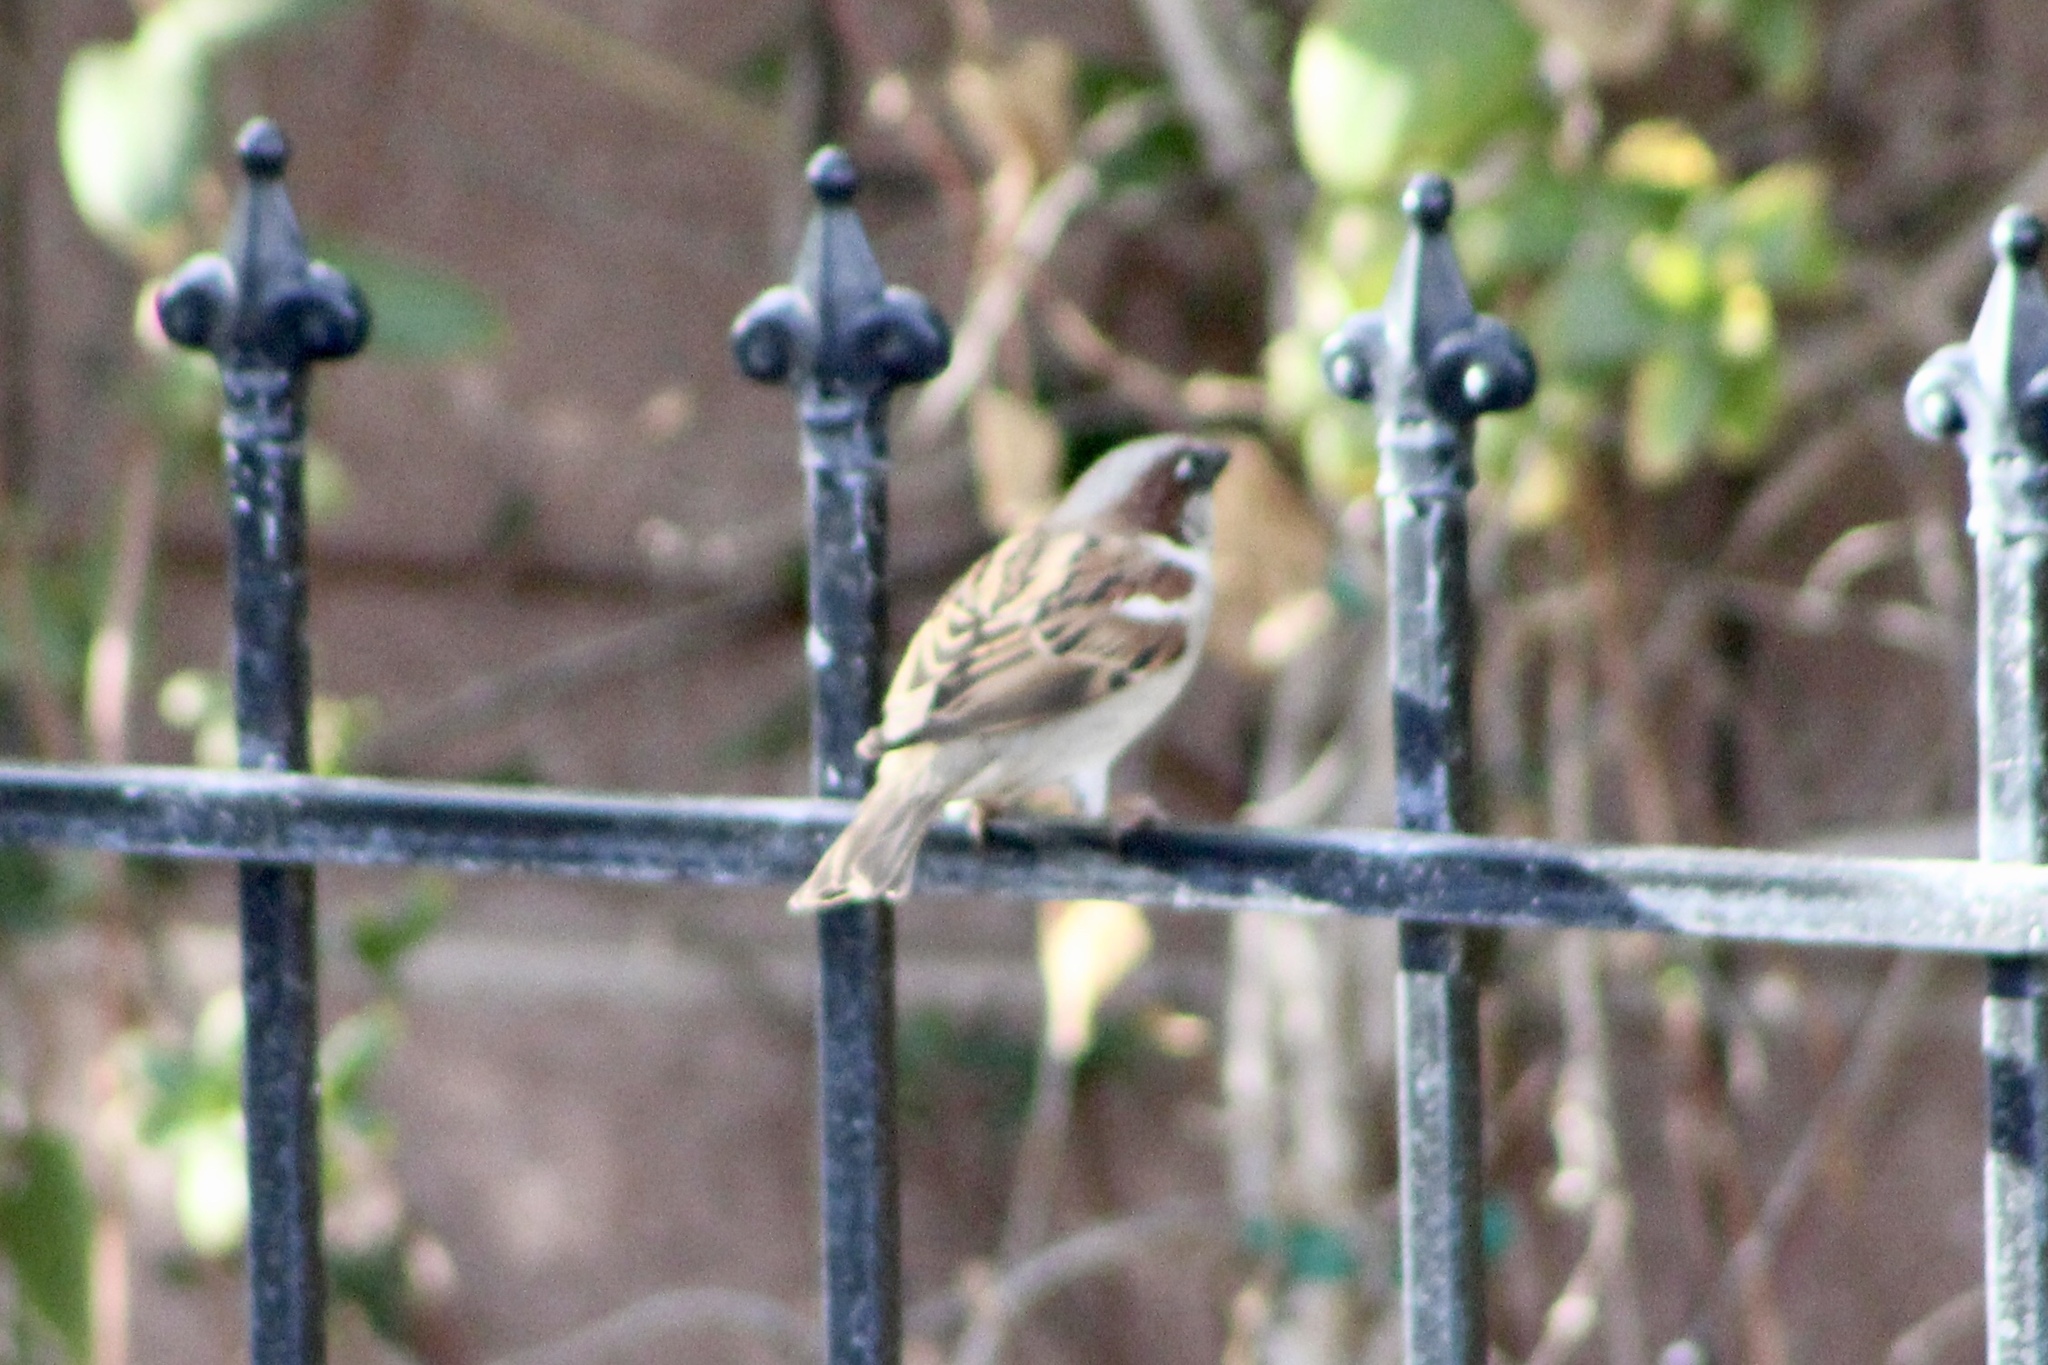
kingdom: Animalia
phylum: Chordata
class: Aves
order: Passeriformes
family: Passeridae
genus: Passer
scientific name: Passer domesticus
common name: House sparrow
